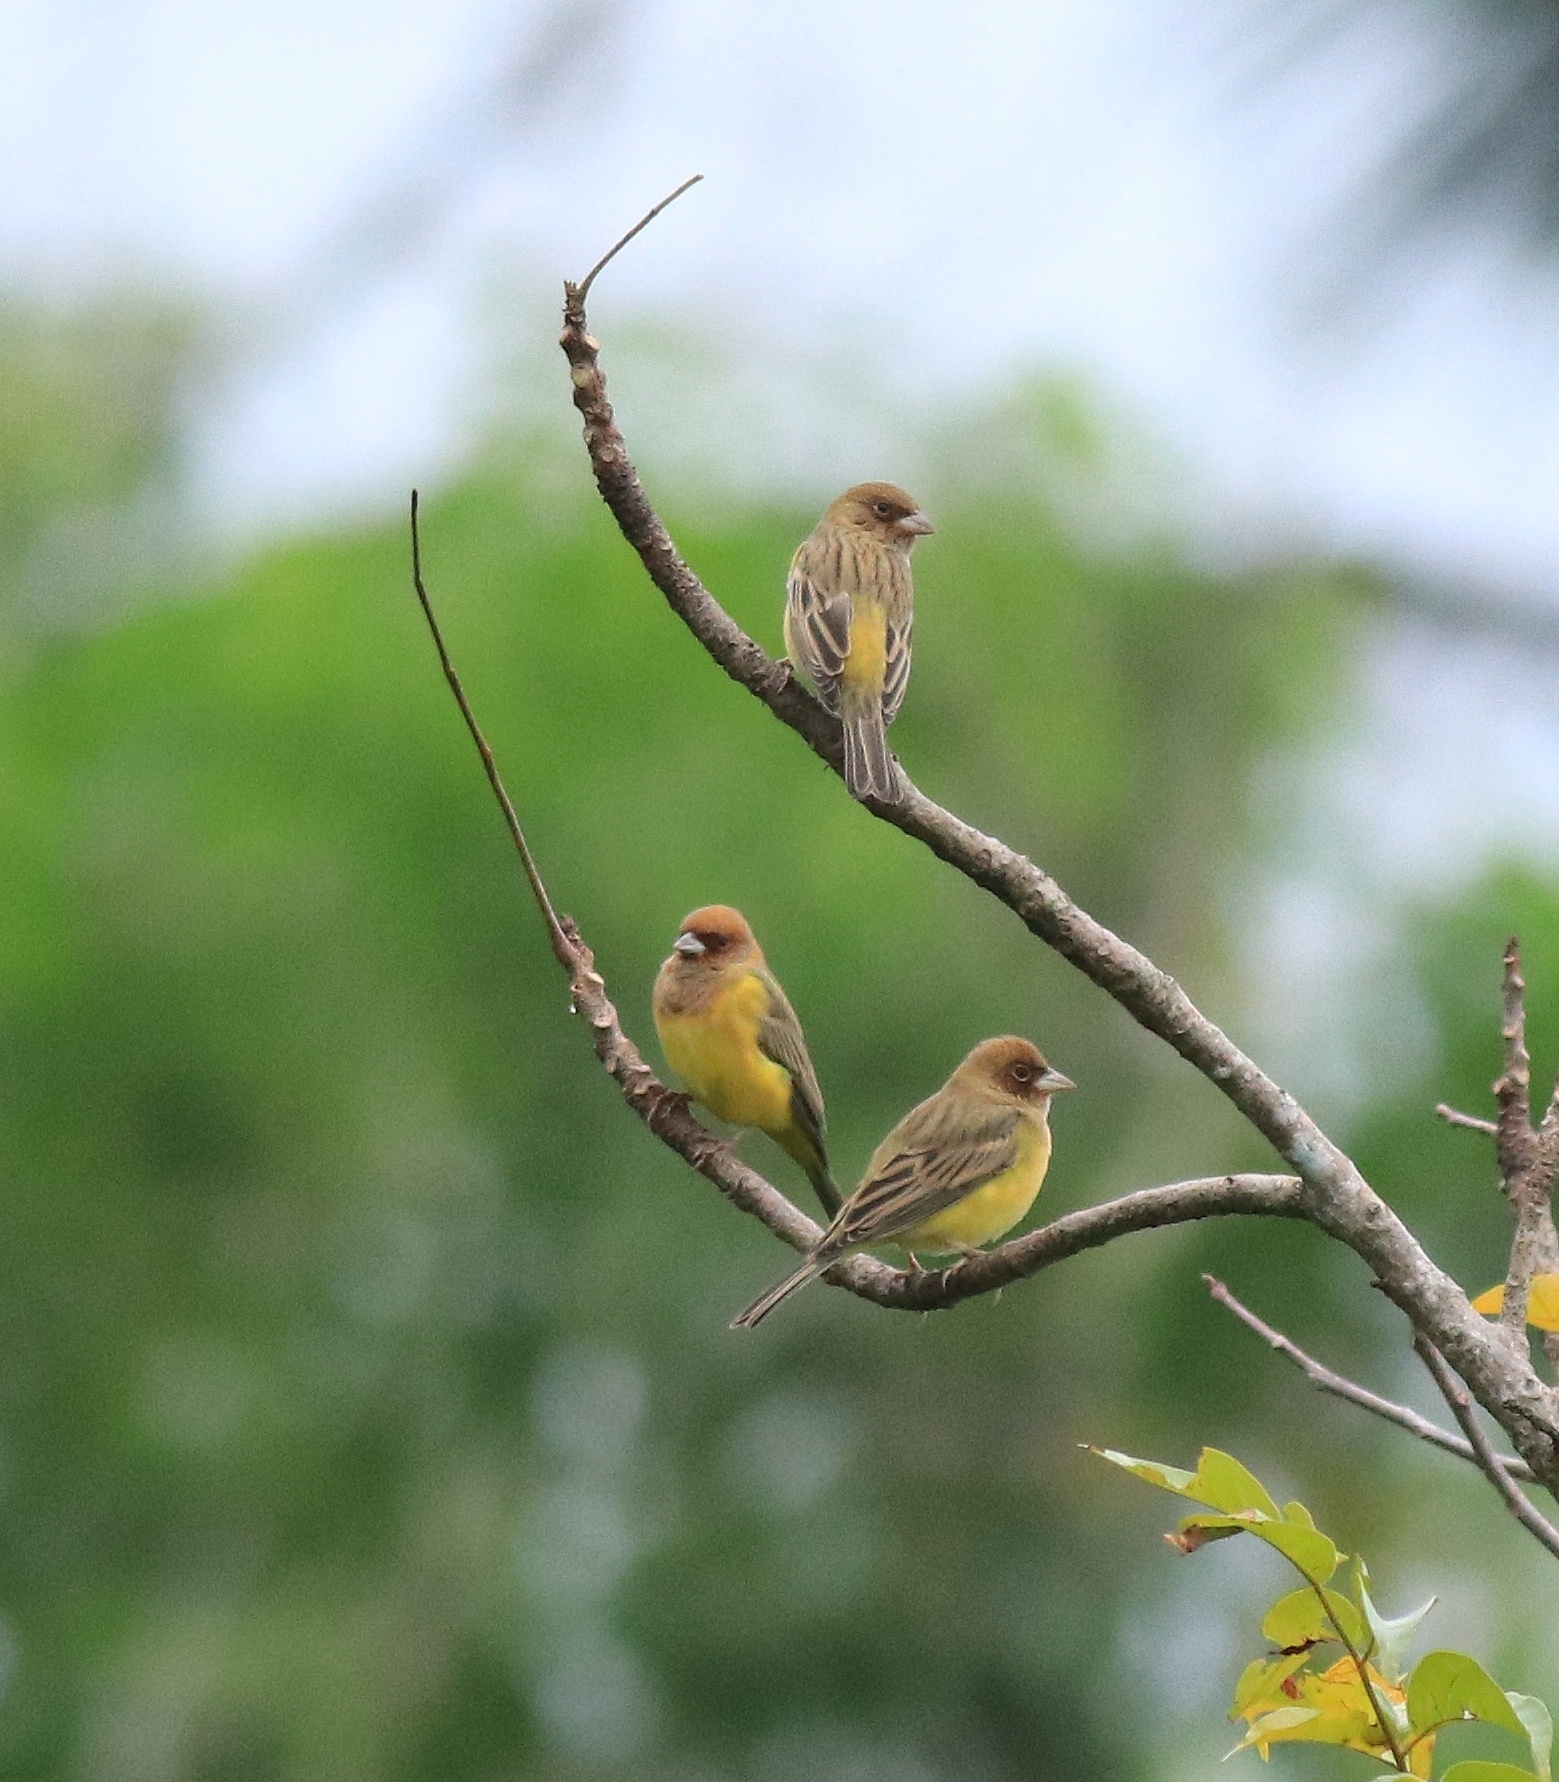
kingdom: Animalia
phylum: Chordata
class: Aves
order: Passeriformes
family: Emberizidae
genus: Emberiza
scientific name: Emberiza bruniceps
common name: Red-headed bunting
